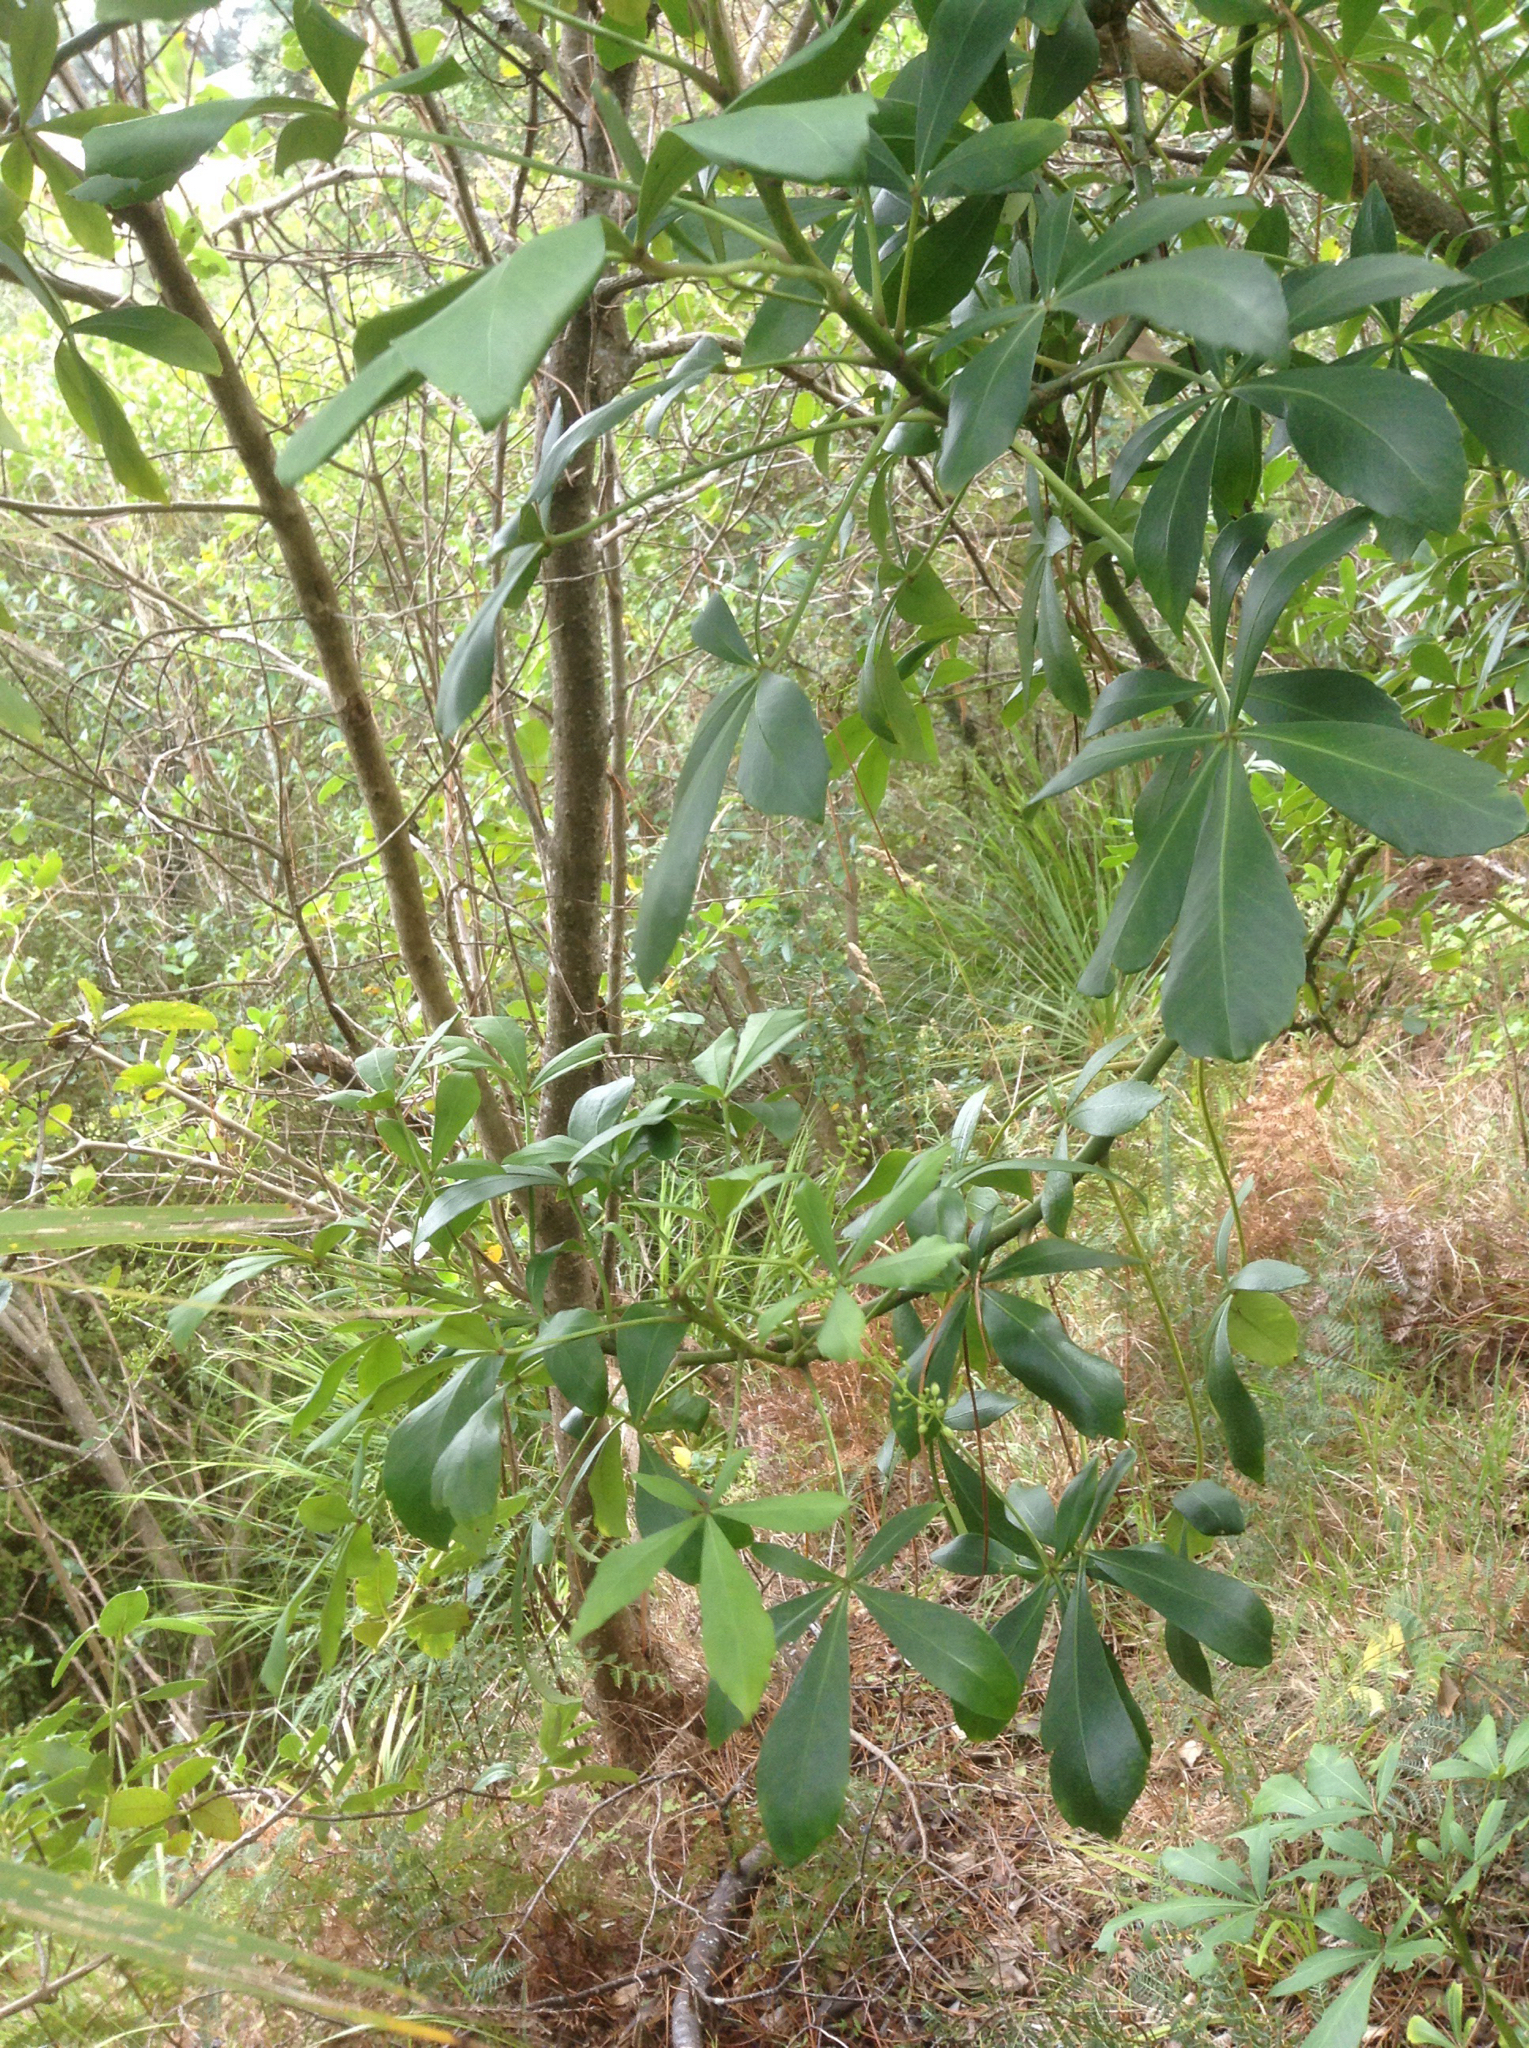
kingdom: Plantae
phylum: Tracheophyta
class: Magnoliopsida
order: Apiales
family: Araliaceae
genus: Pseudopanax
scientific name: Pseudopanax lessonii
